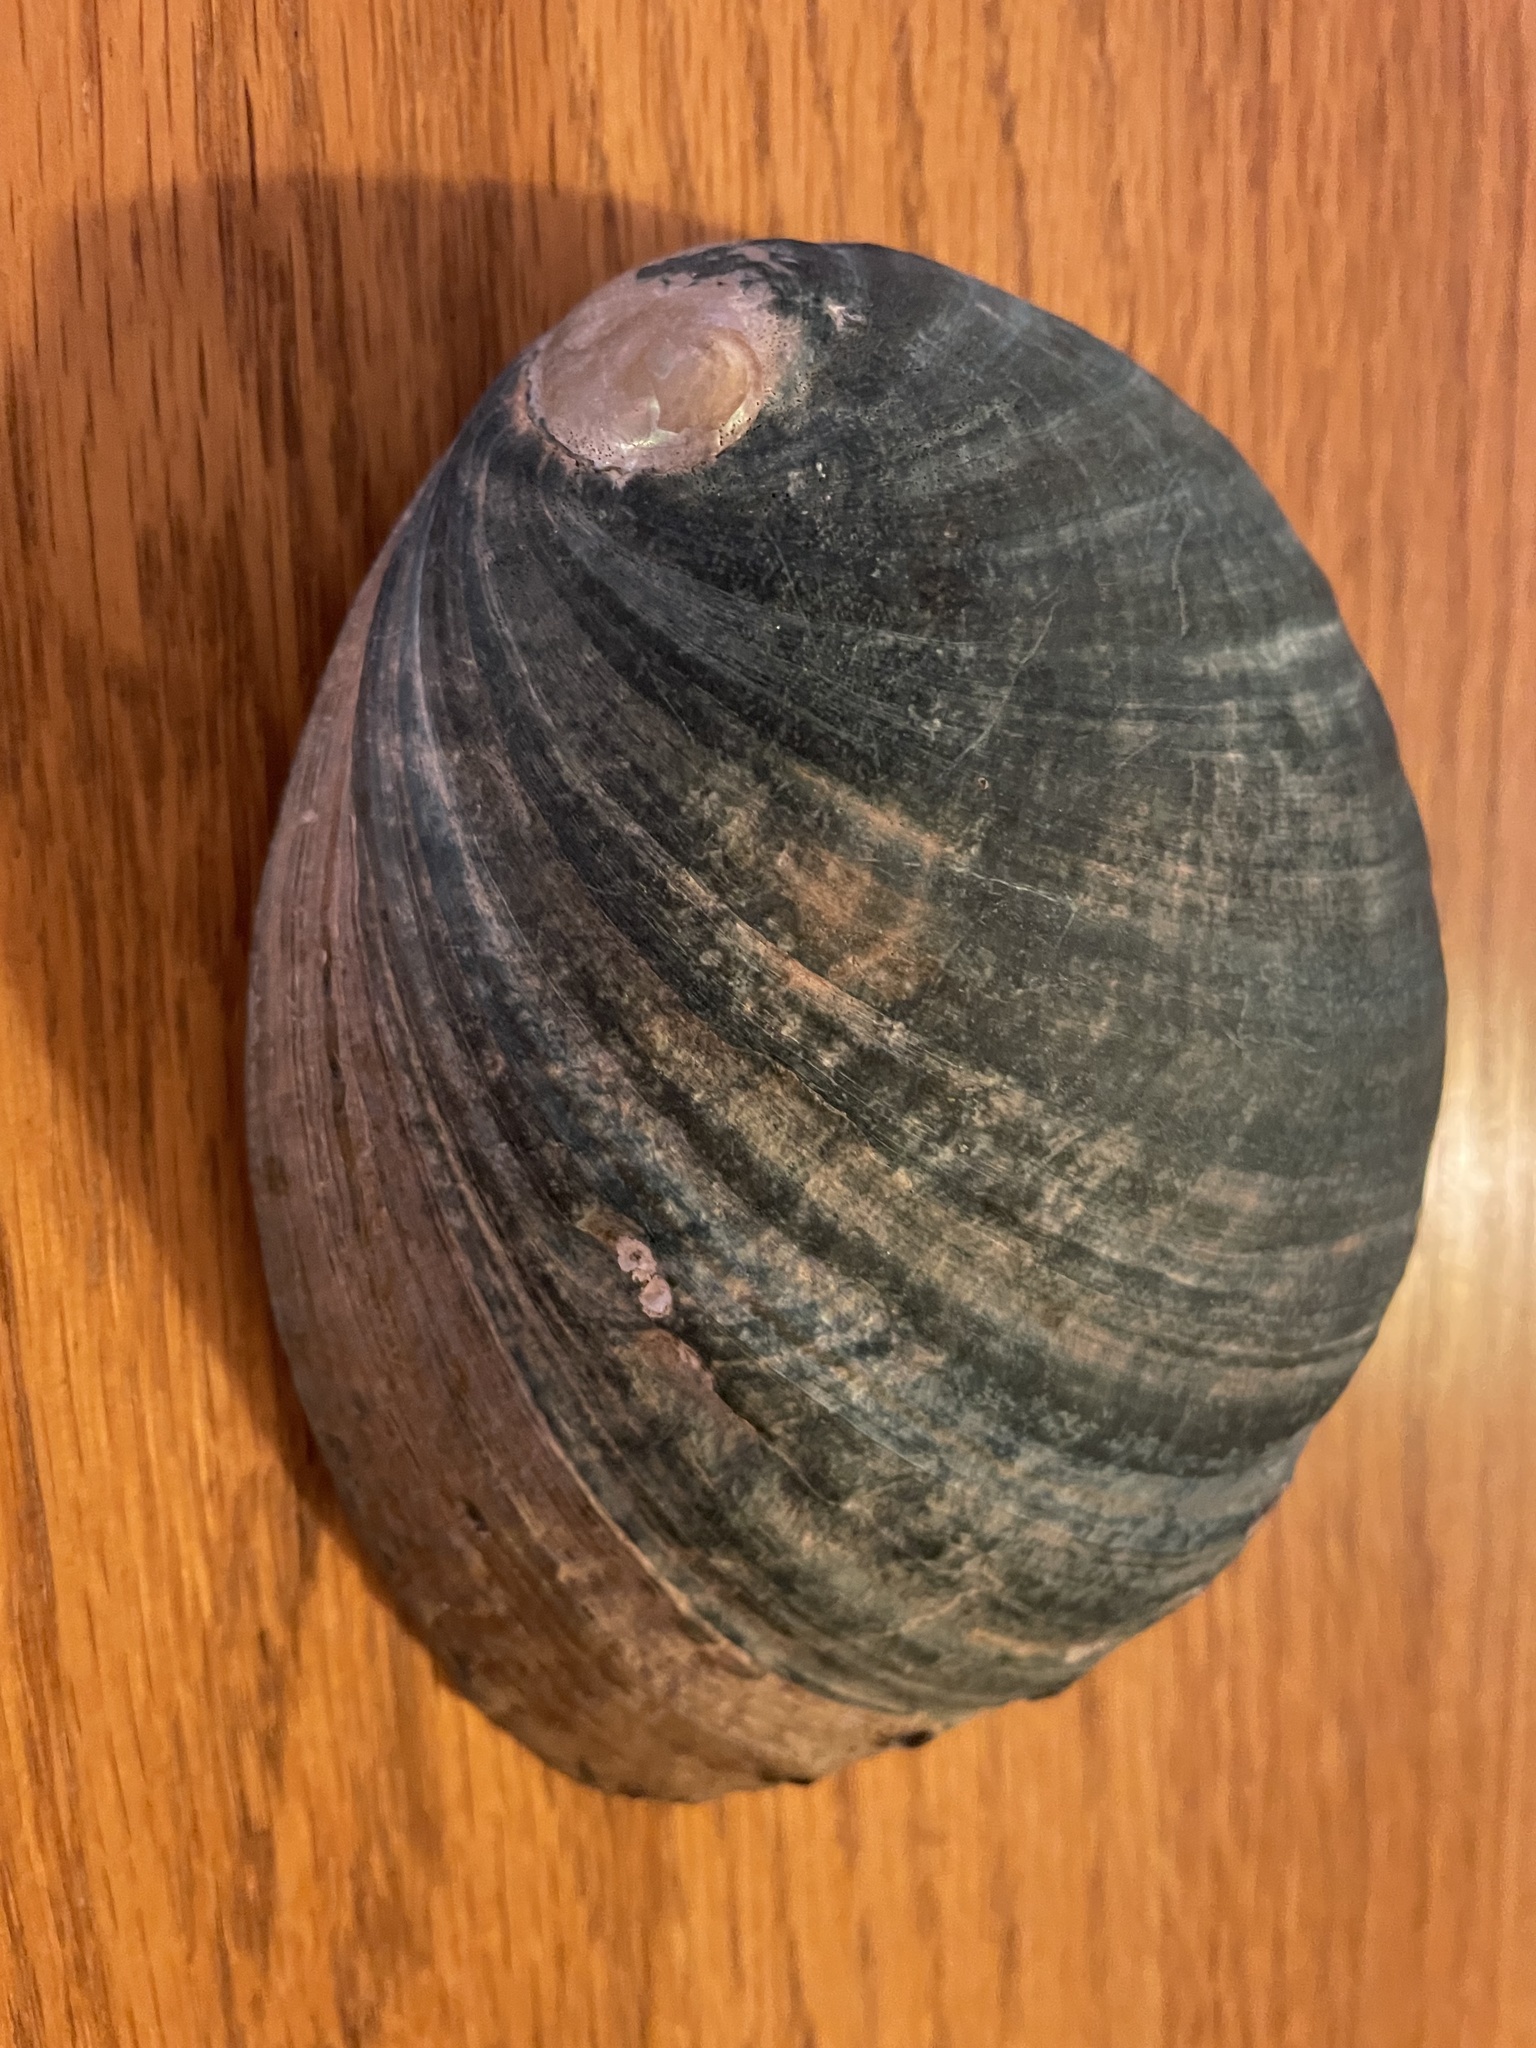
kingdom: Animalia
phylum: Mollusca
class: Gastropoda
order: Lepetellida
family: Haliotidae
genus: Haliotis
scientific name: Haliotis cracherodii
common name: Black abalone
